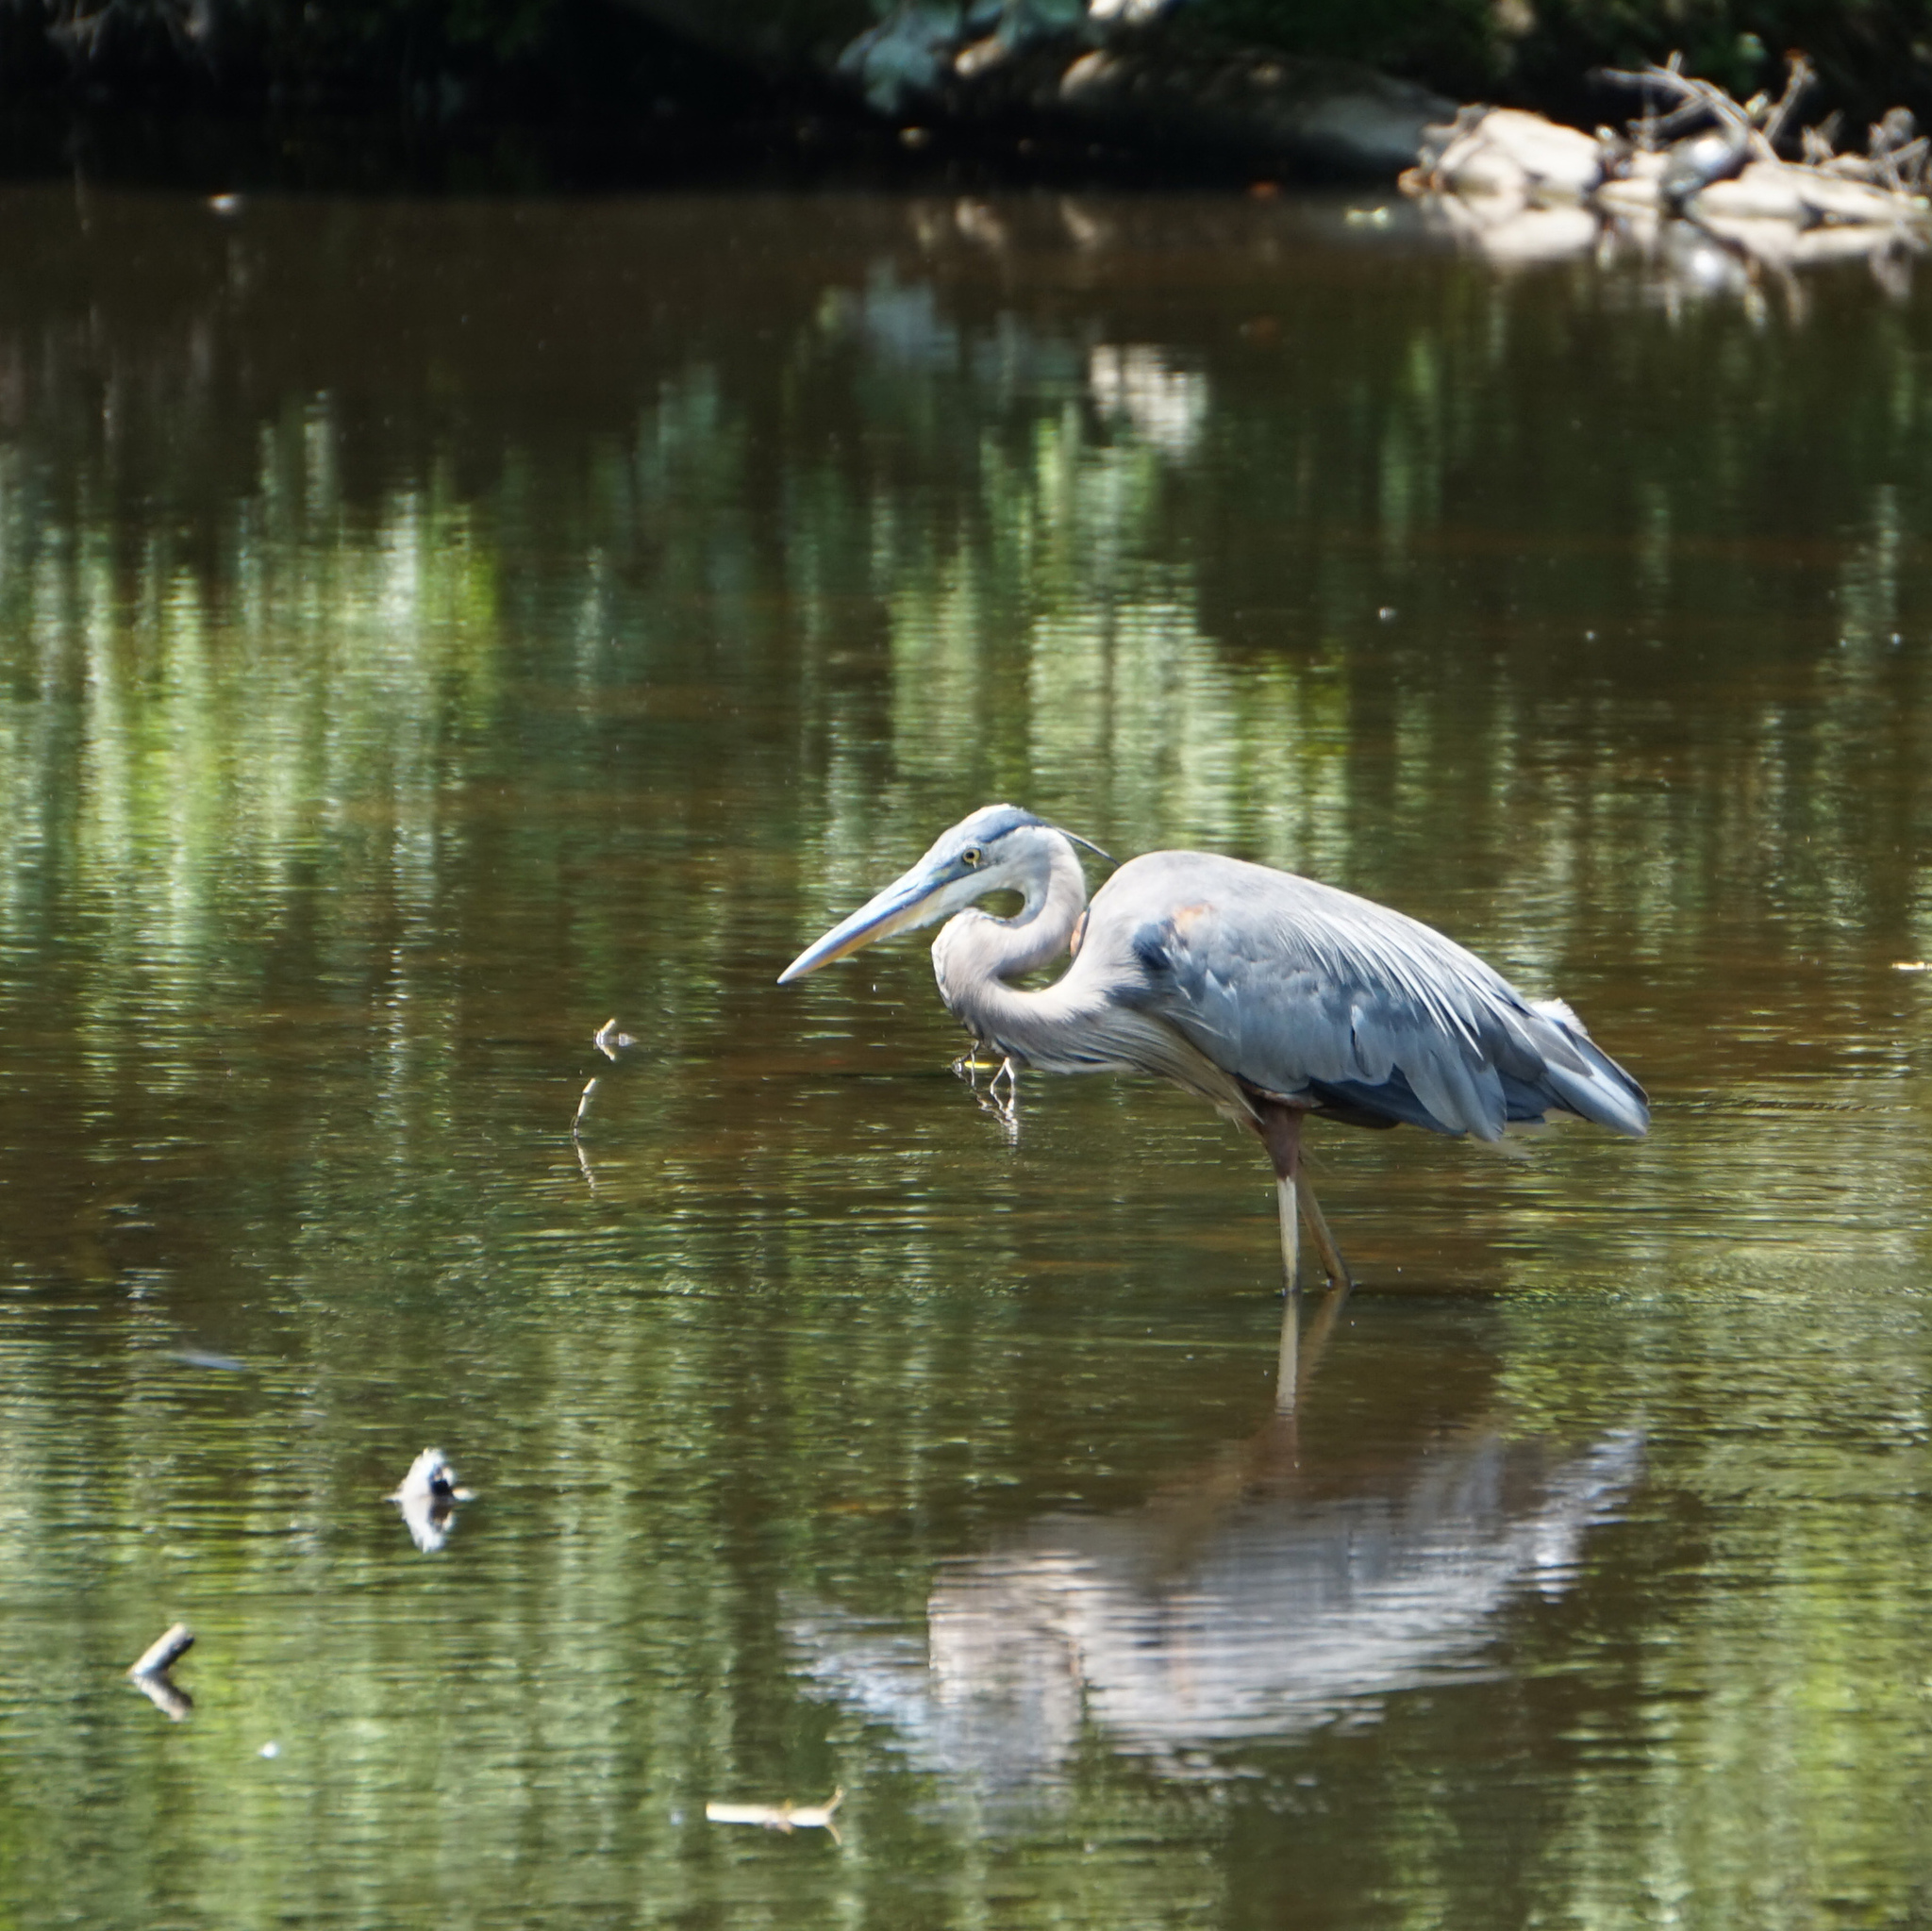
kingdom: Animalia
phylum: Chordata
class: Aves
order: Pelecaniformes
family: Ardeidae
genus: Ardea
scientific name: Ardea herodias
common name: Great blue heron
